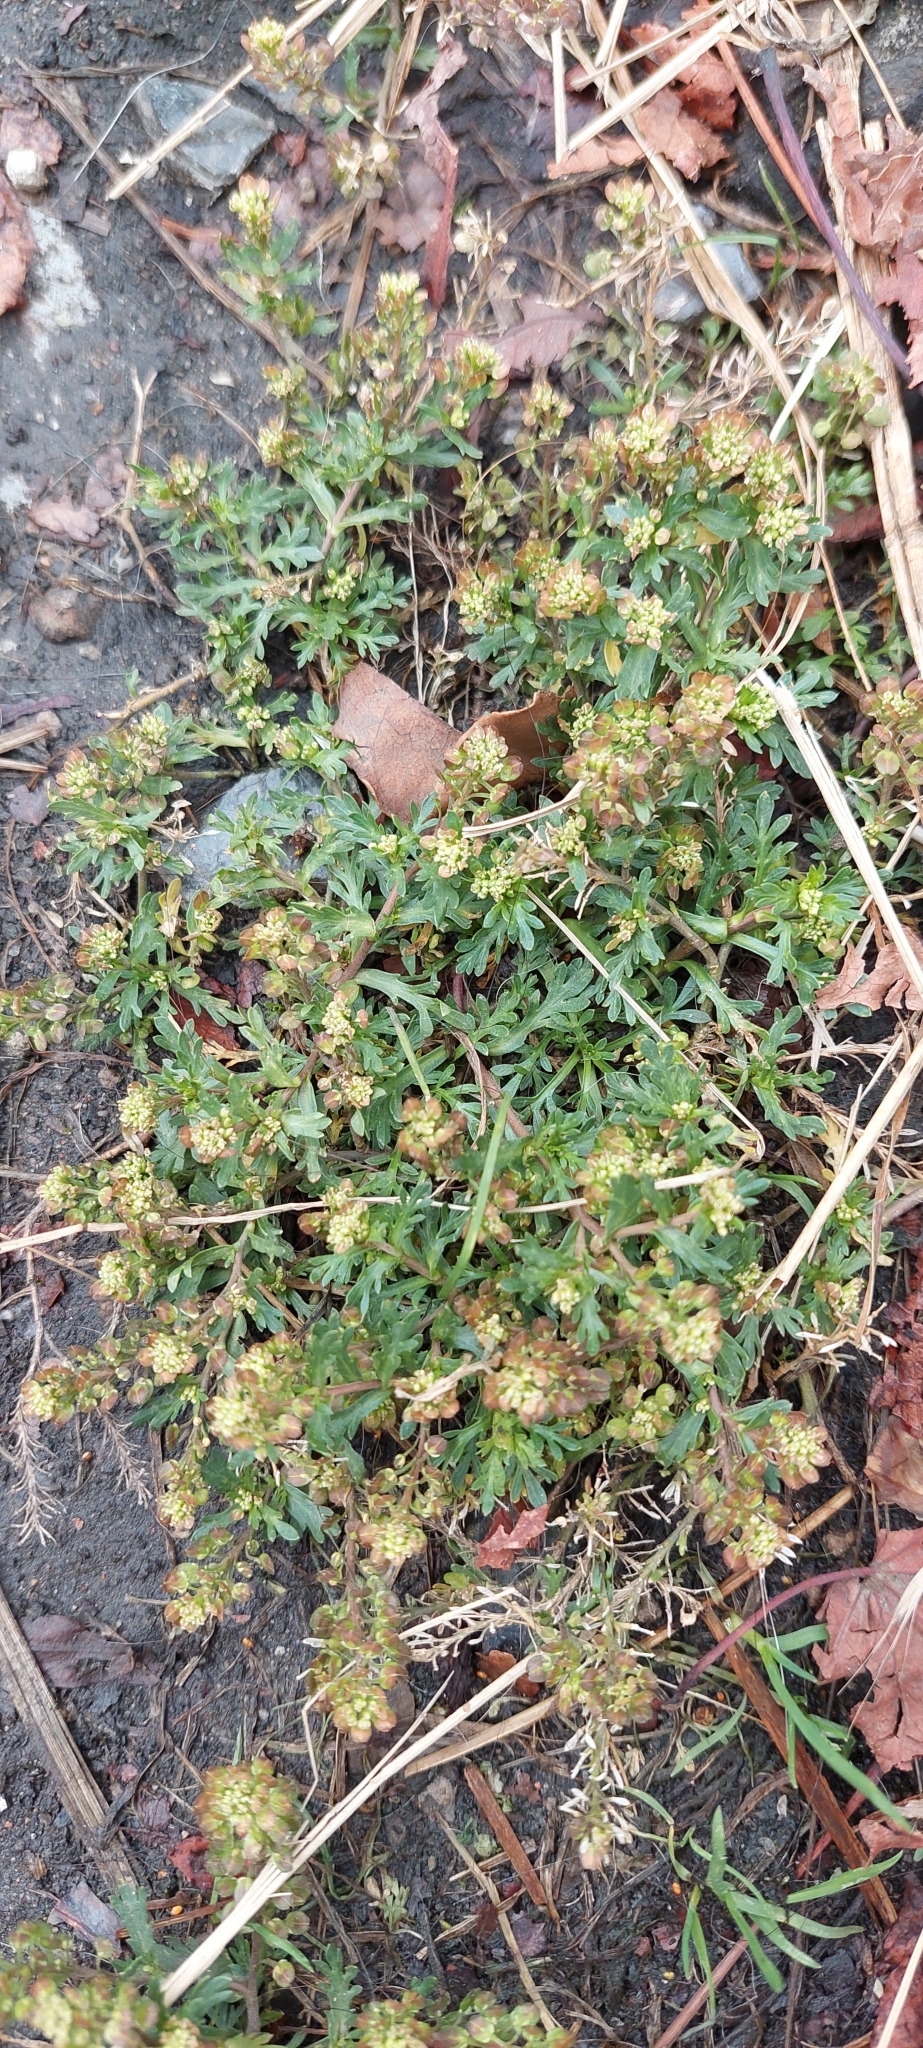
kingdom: Plantae
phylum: Tracheophyta
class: Magnoliopsida
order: Brassicales
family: Brassicaceae
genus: Lepidium
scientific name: Lepidium bipinnatifidum
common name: Wayside pepperwort
